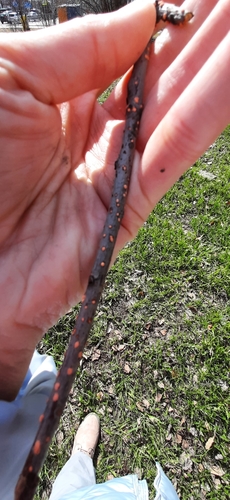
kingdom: Fungi
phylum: Ascomycota
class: Sordariomycetes
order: Hypocreales
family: Nectriaceae
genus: Nectria
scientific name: Nectria cinnabarina
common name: Coral spot
